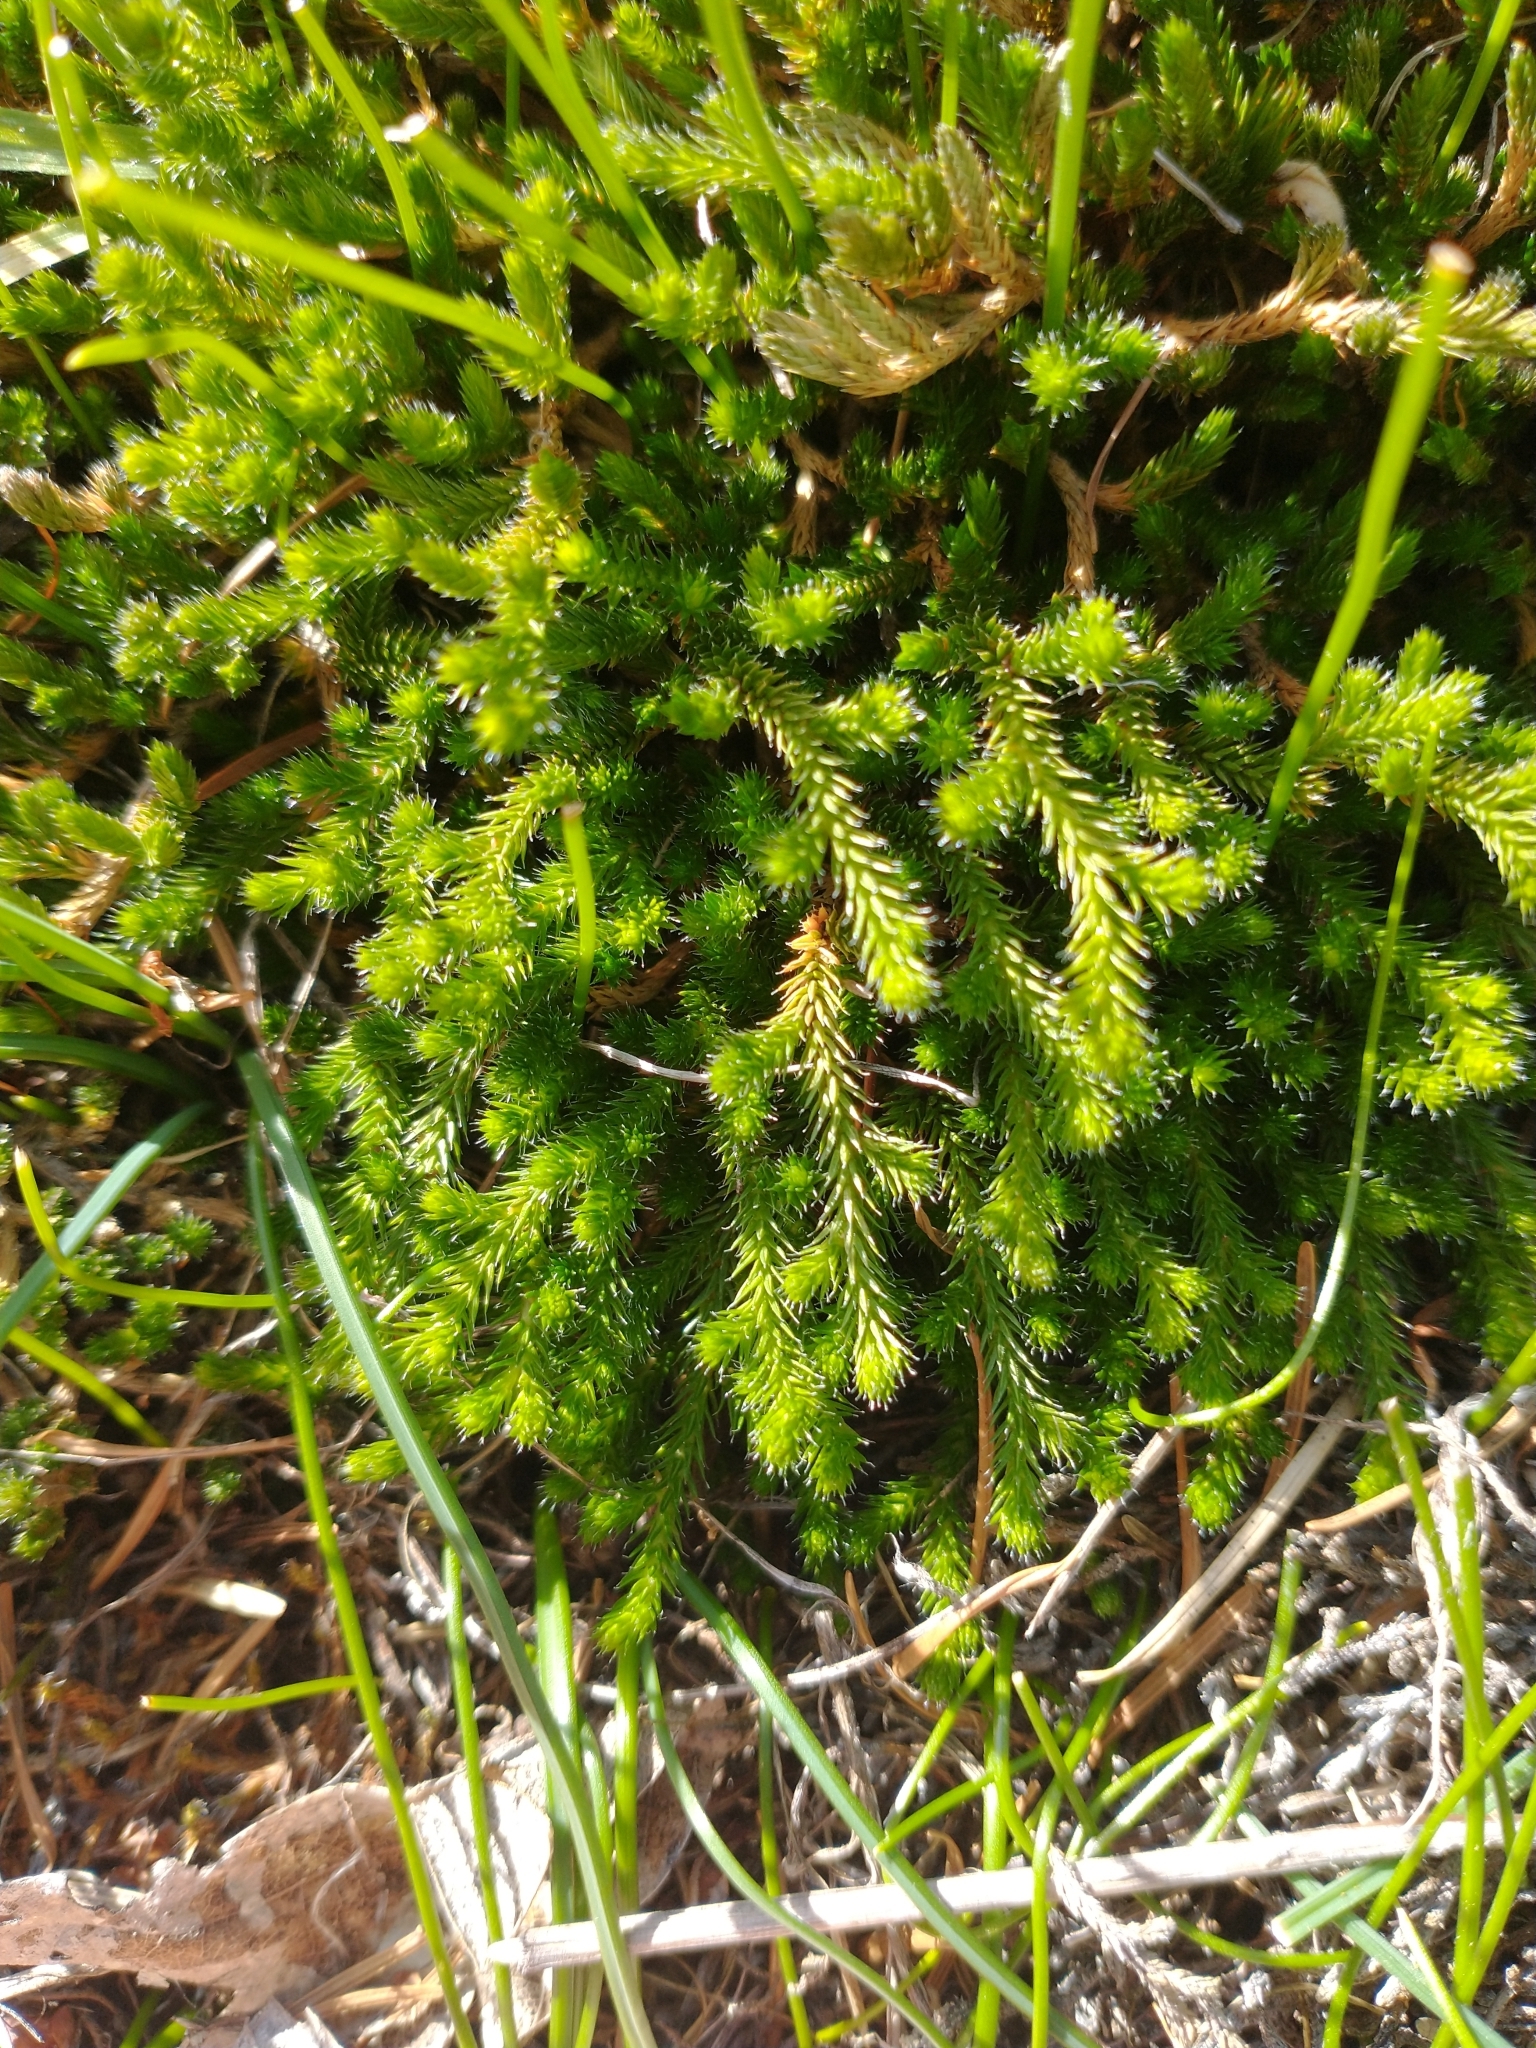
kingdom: Plantae
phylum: Tracheophyta
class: Lycopodiopsida
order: Selaginellales
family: Selaginellaceae
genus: Selaginella
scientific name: Selaginella wallacei
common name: Wallace's selaginella
